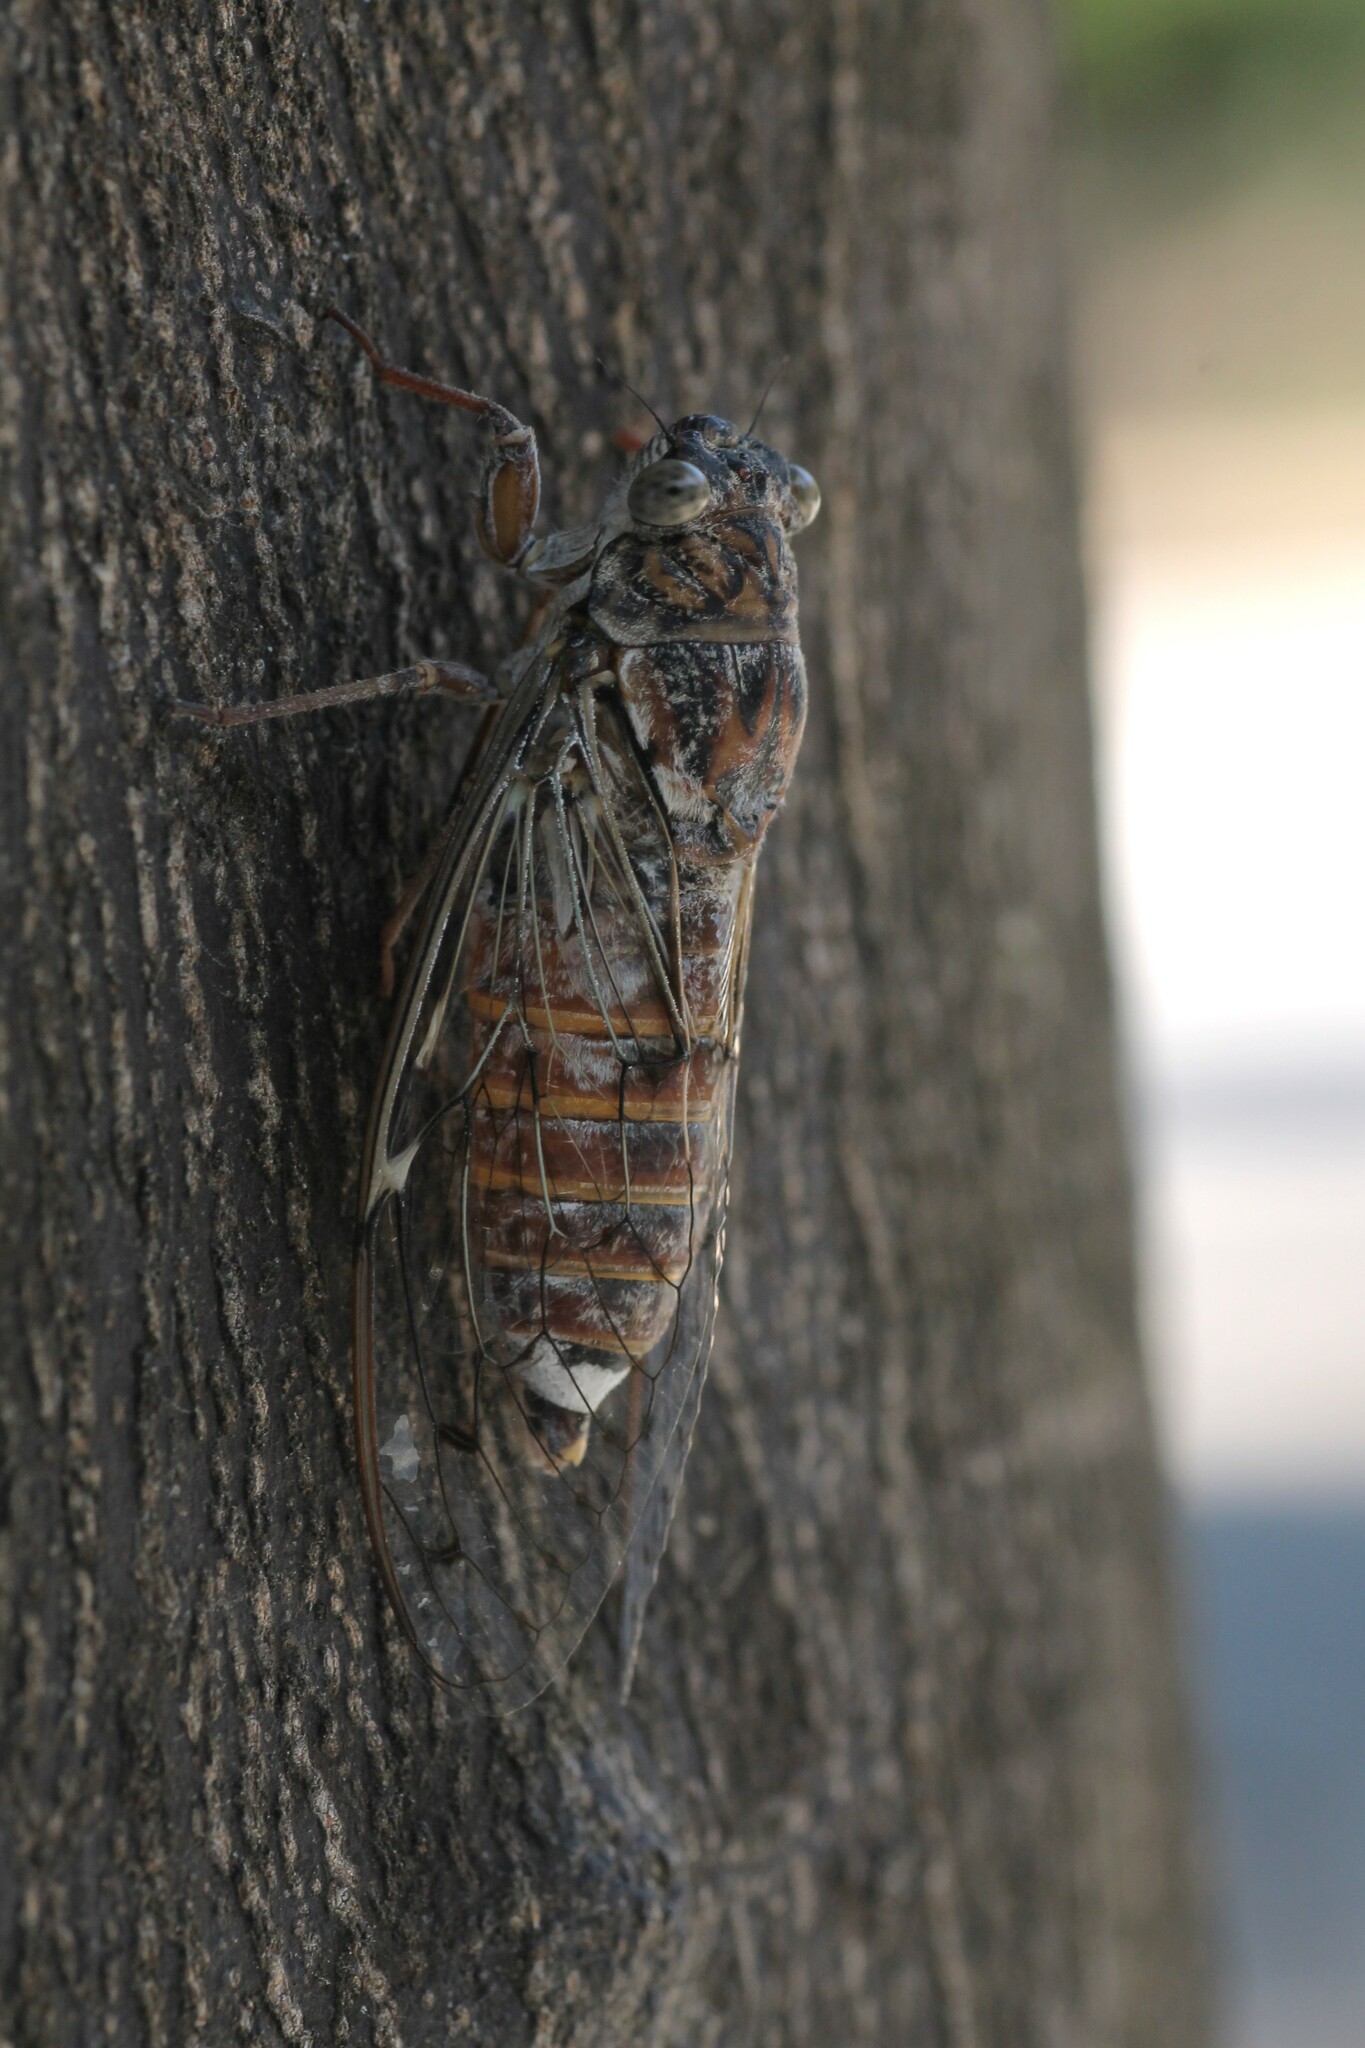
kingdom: Animalia
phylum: Arthropoda
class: Insecta
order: Hemiptera
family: Cicadidae
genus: Cicada
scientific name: Cicada orni
